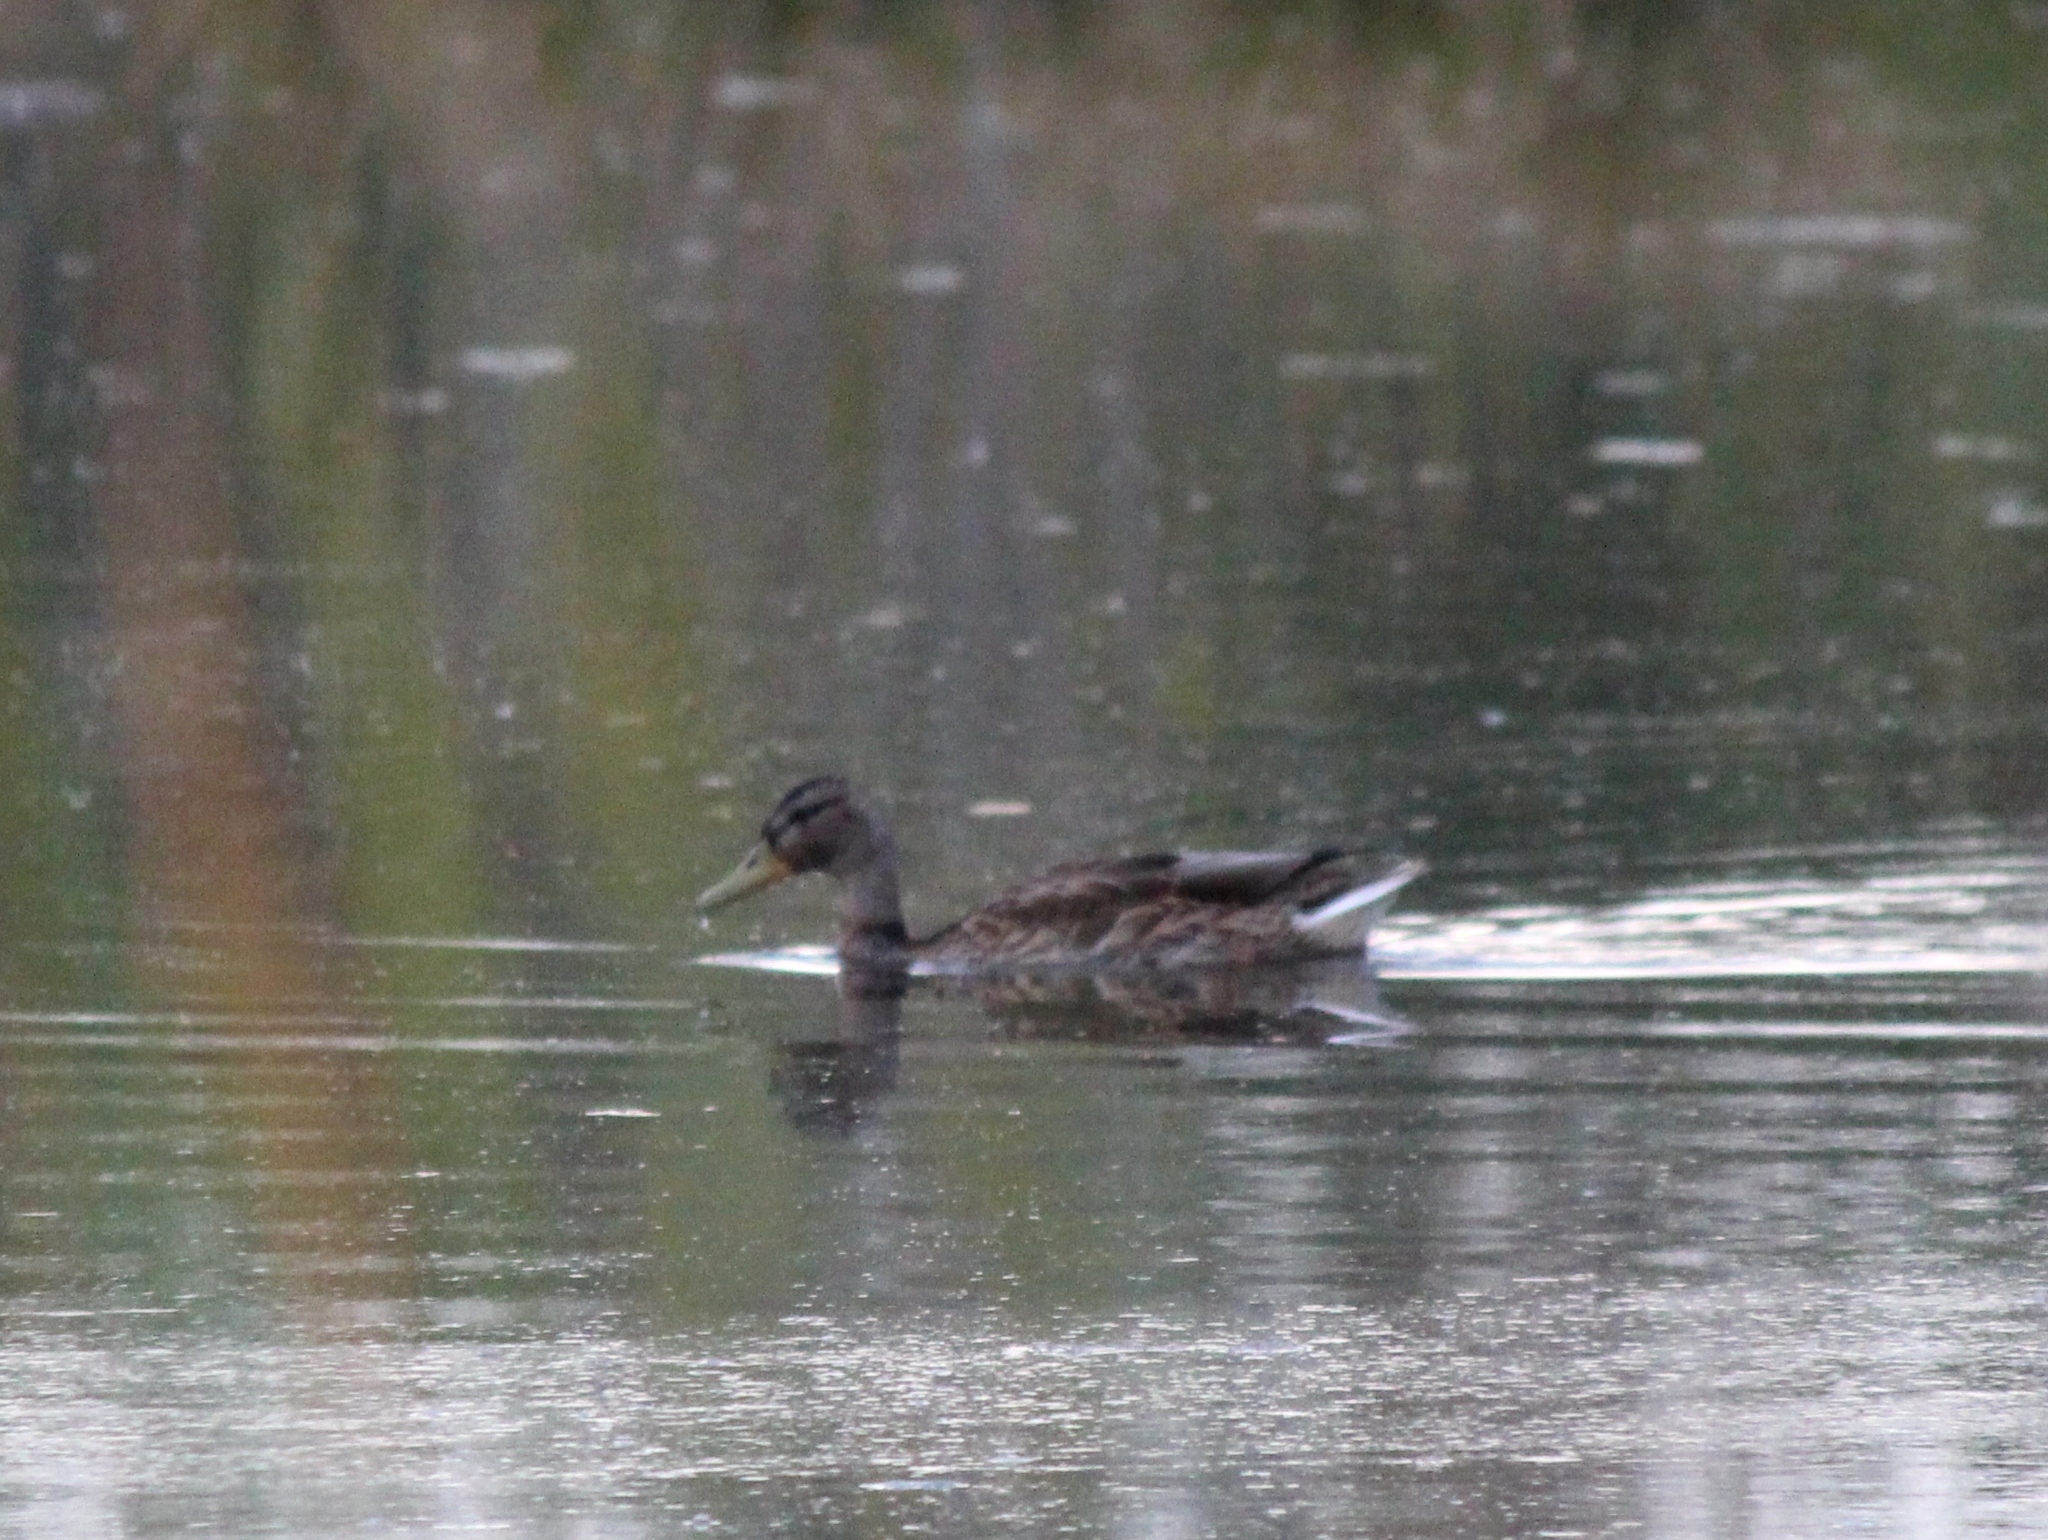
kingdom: Animalia
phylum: Chordata
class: Aves
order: Anseriformes
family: Anatidae
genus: Anas
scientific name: Anas platyrhynchos
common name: Mallard
